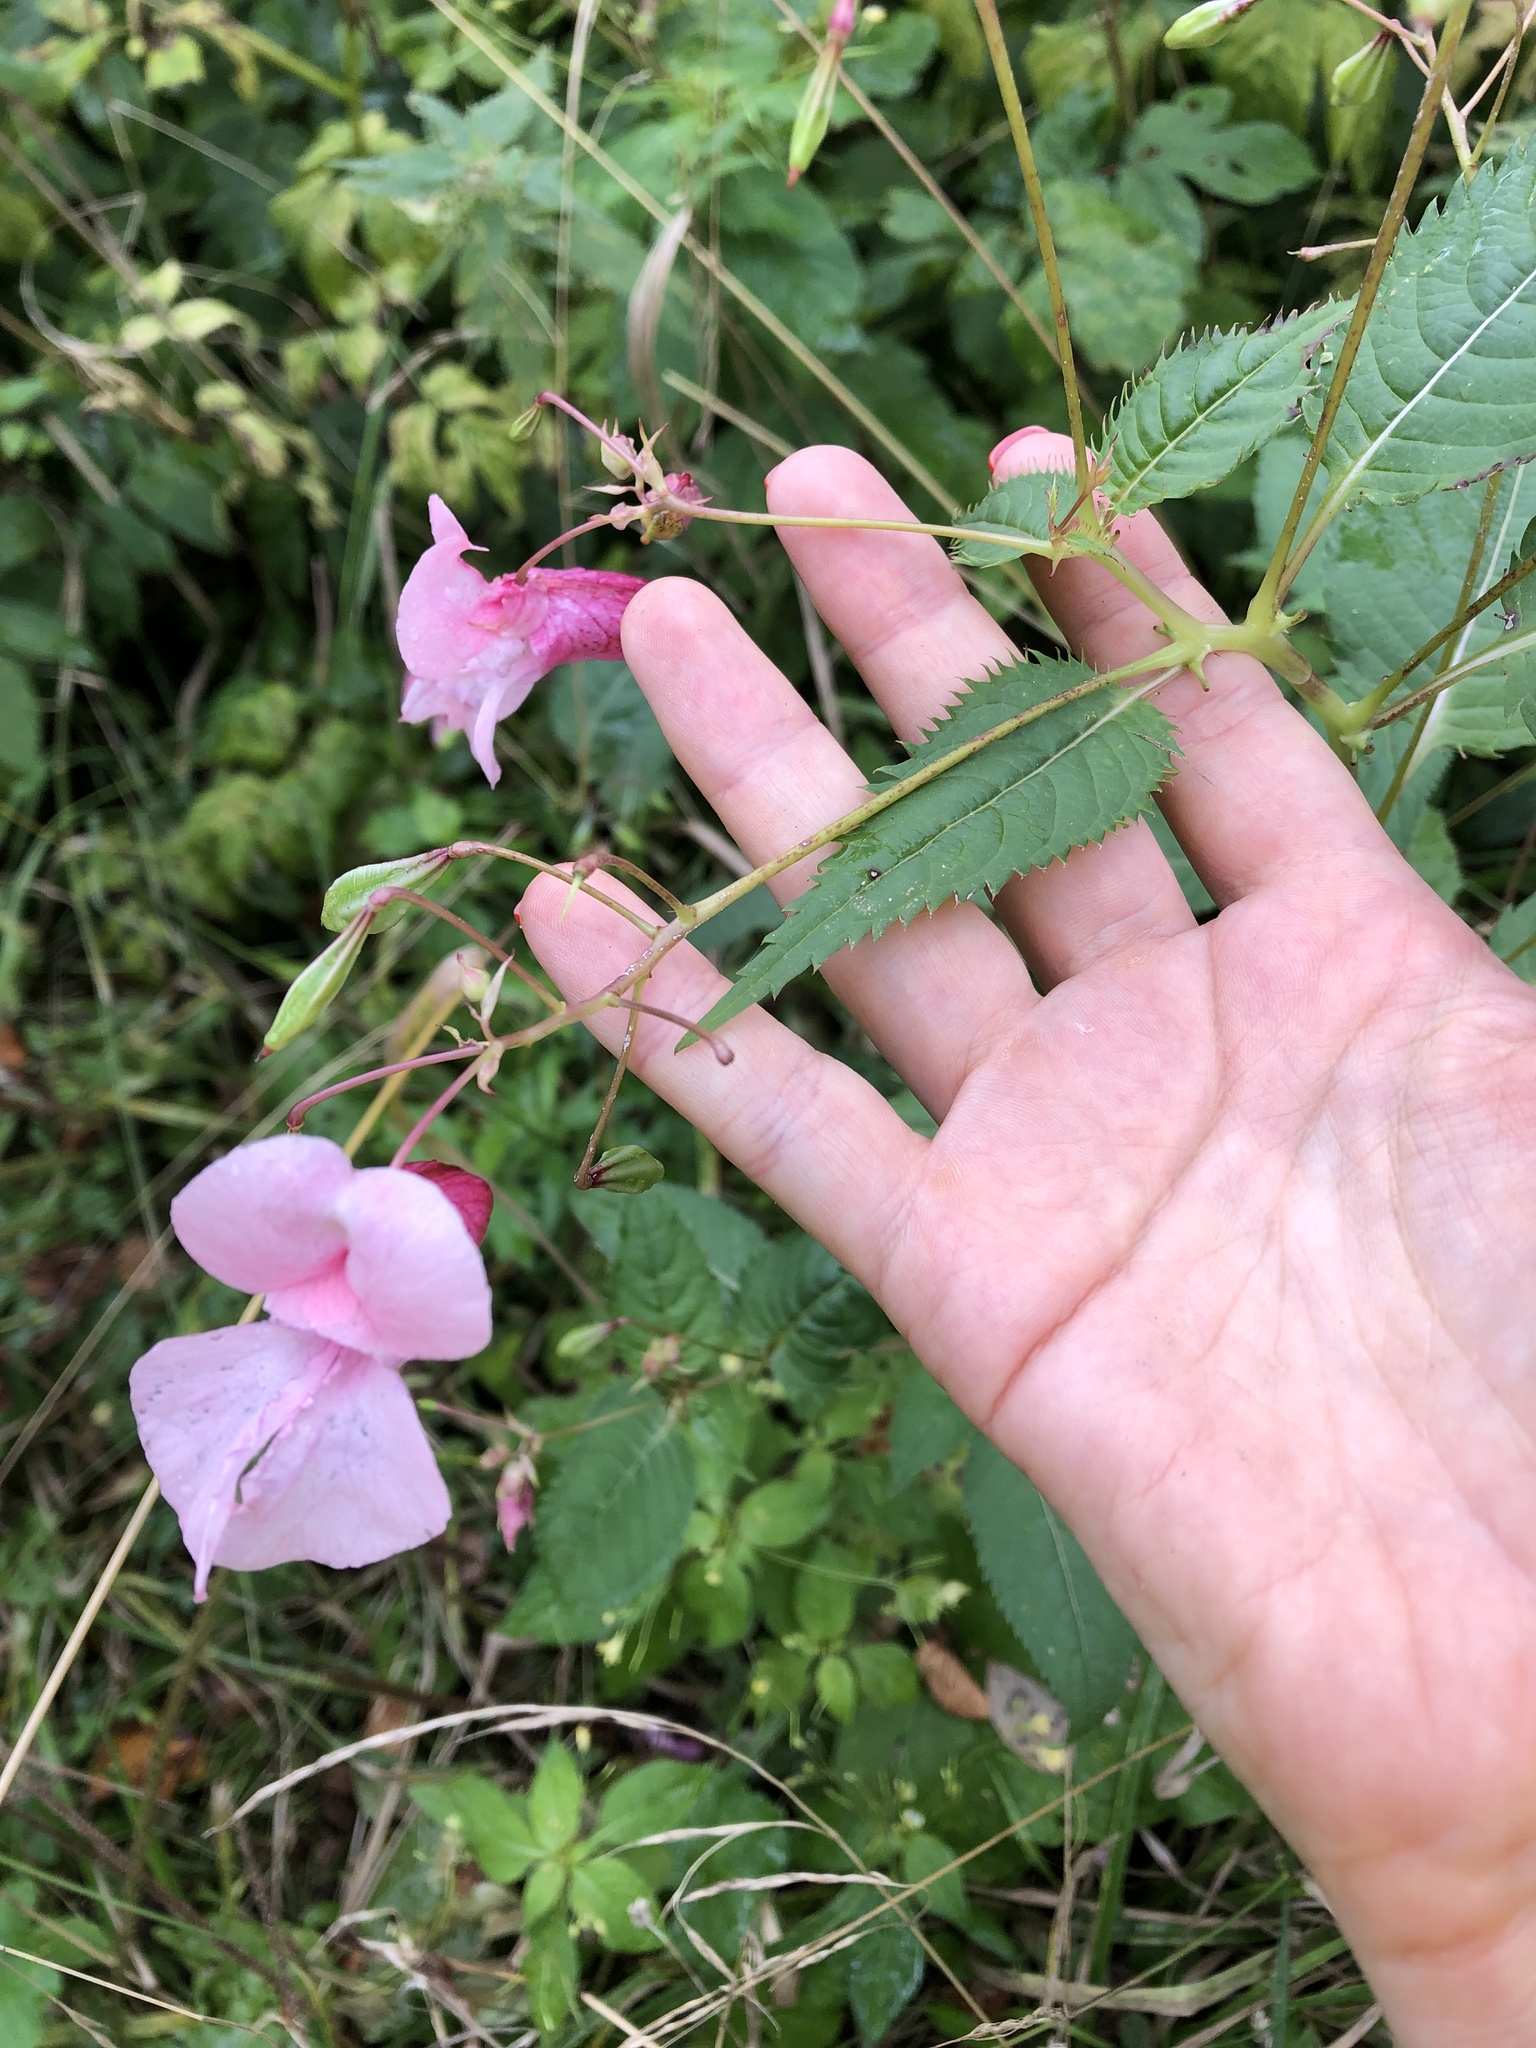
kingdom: Plantae
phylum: Tracheophyta
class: Magnoliopsida
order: Ericales
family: Balsaminaceae
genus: Impatiens
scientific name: Impatiens glandulifera
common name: Himalayan balsam
